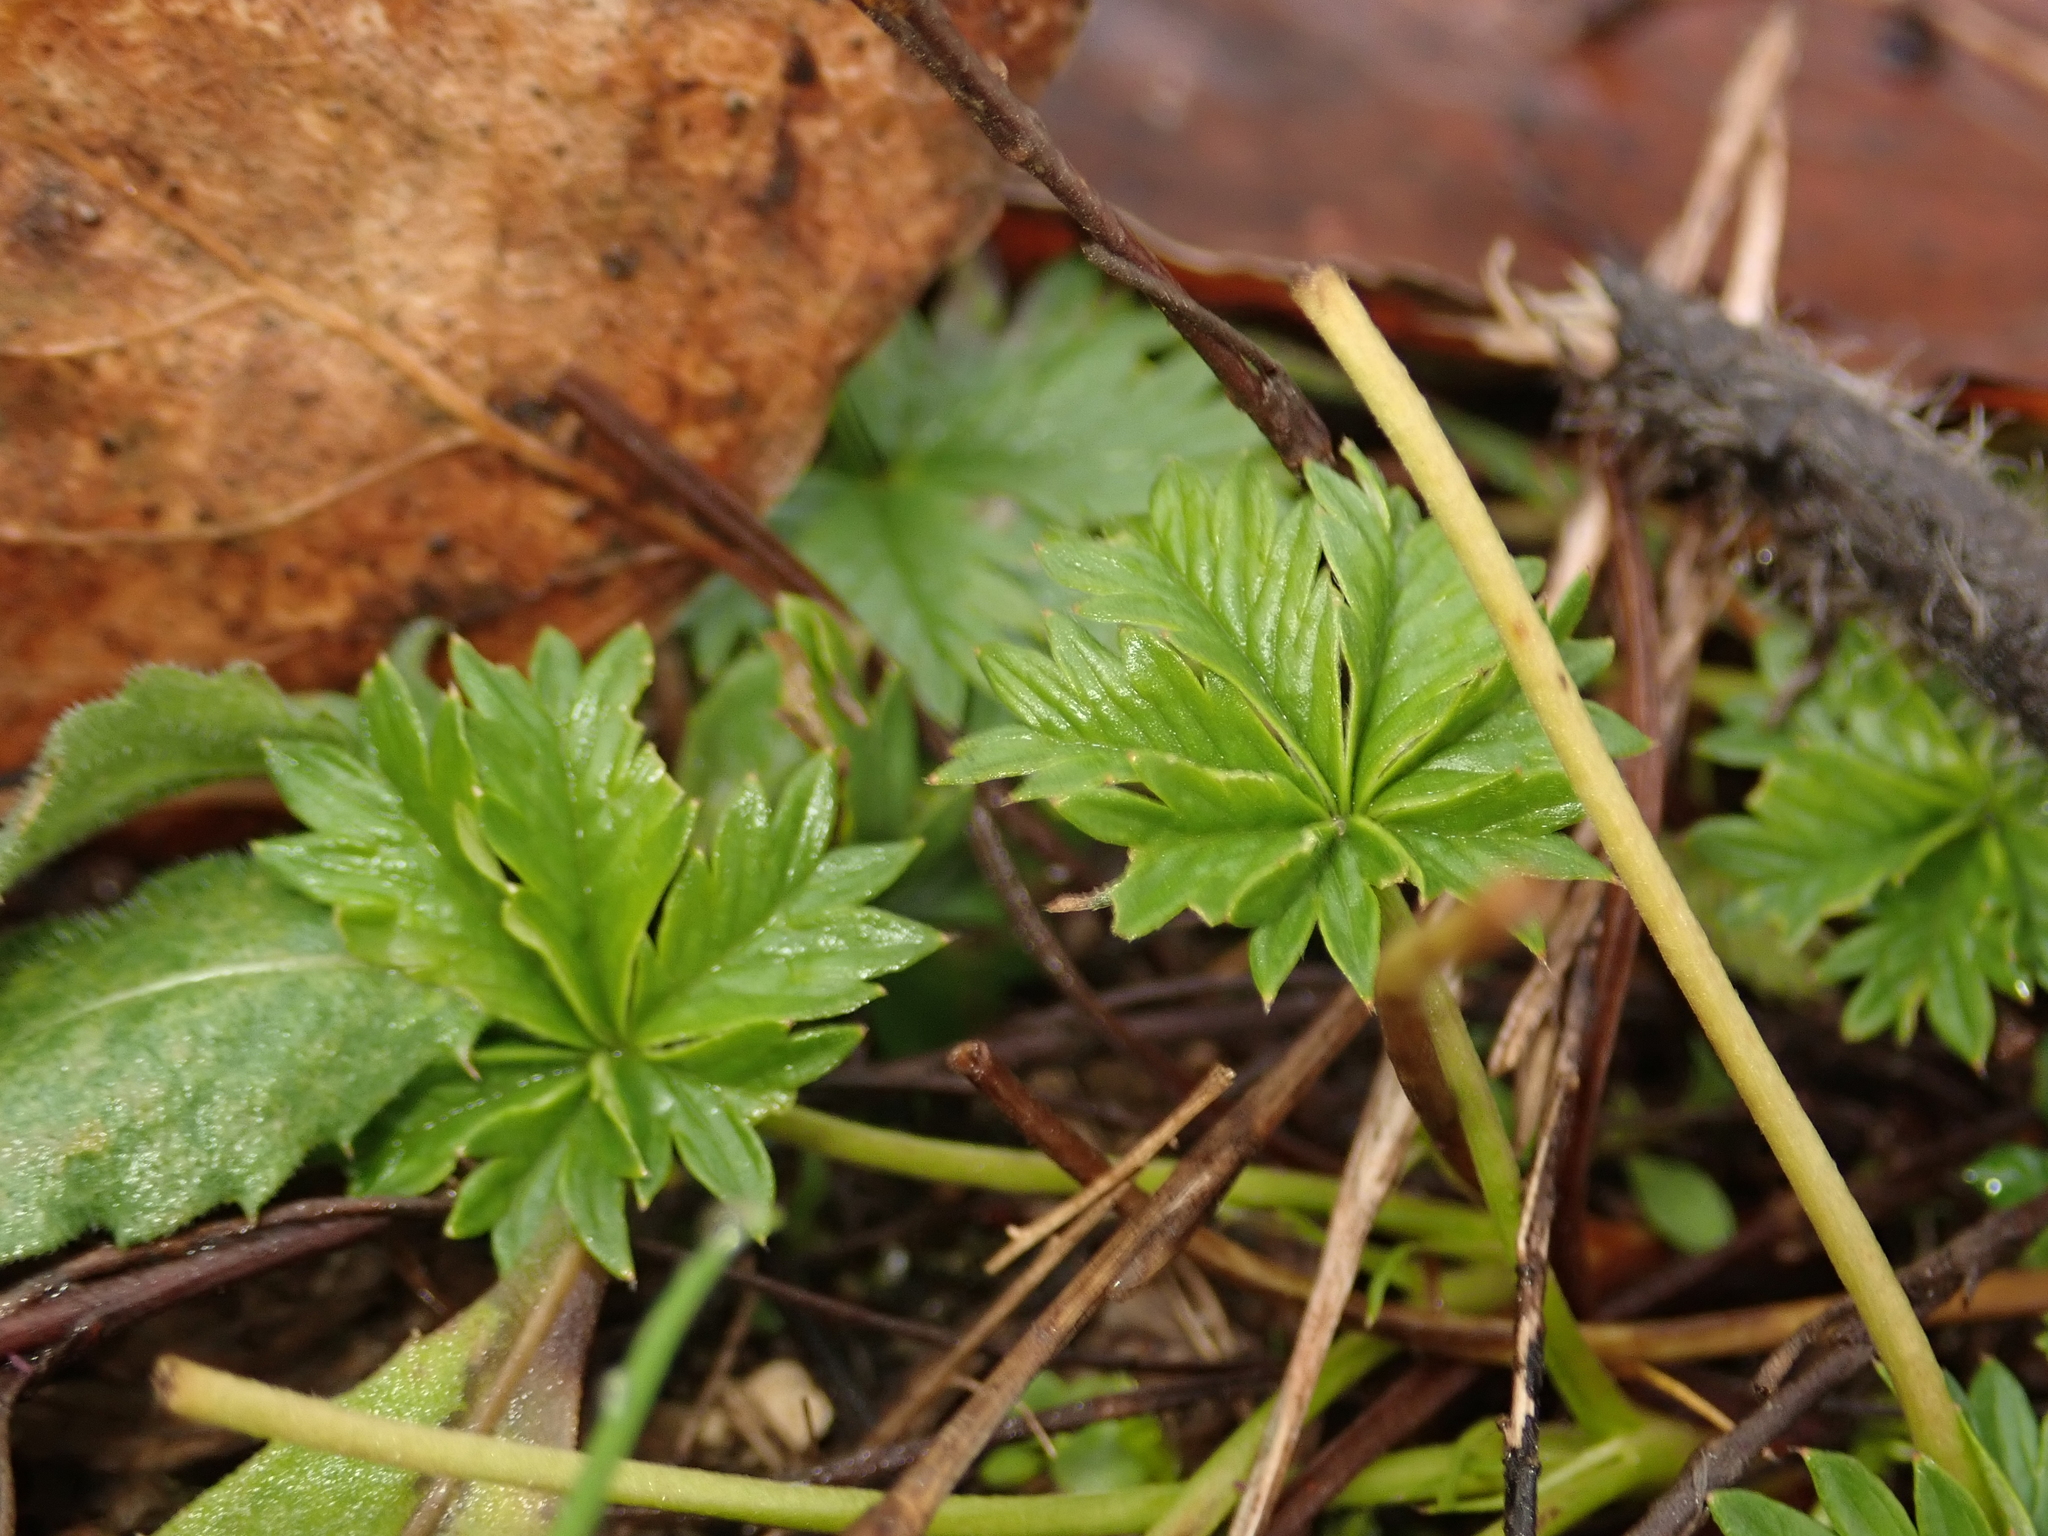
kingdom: Plantae
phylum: Tracheophyta
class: Magnoliopsida
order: Rosales
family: Rosaceae
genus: Potentilla
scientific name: Potentilla argentea
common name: Hoary cinquefoil
